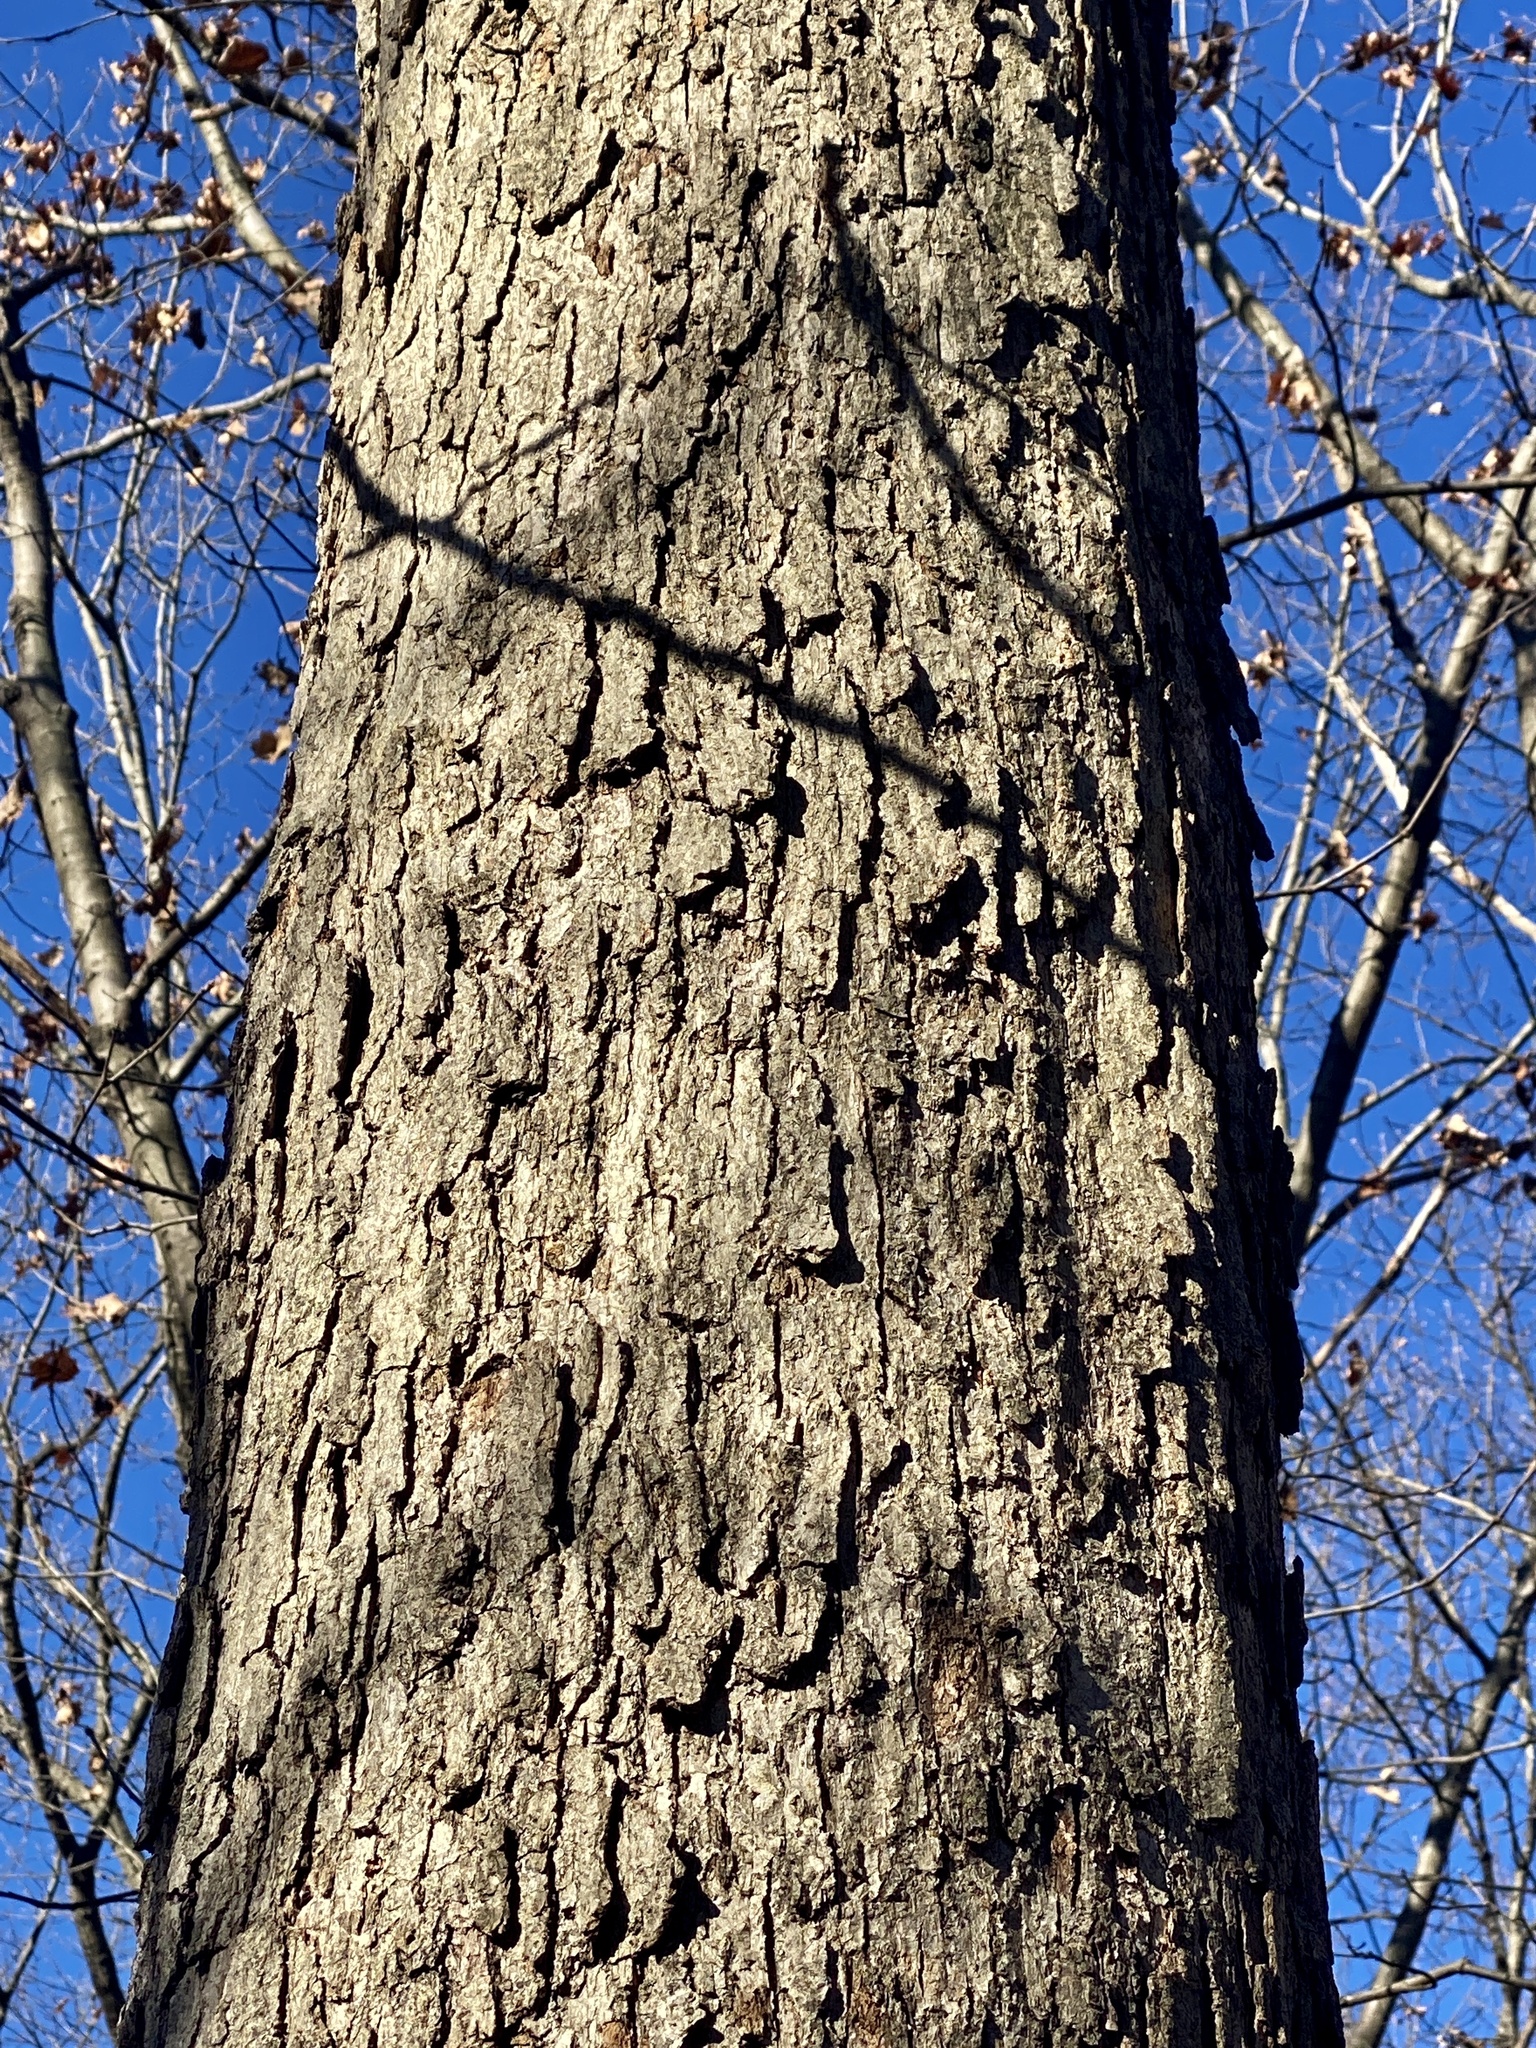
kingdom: Plantae
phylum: Tracheophyta
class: Magnoliopsida
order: Fagales
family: Fagaceae
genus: Quercus
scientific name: Quercus alba
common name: White oak
